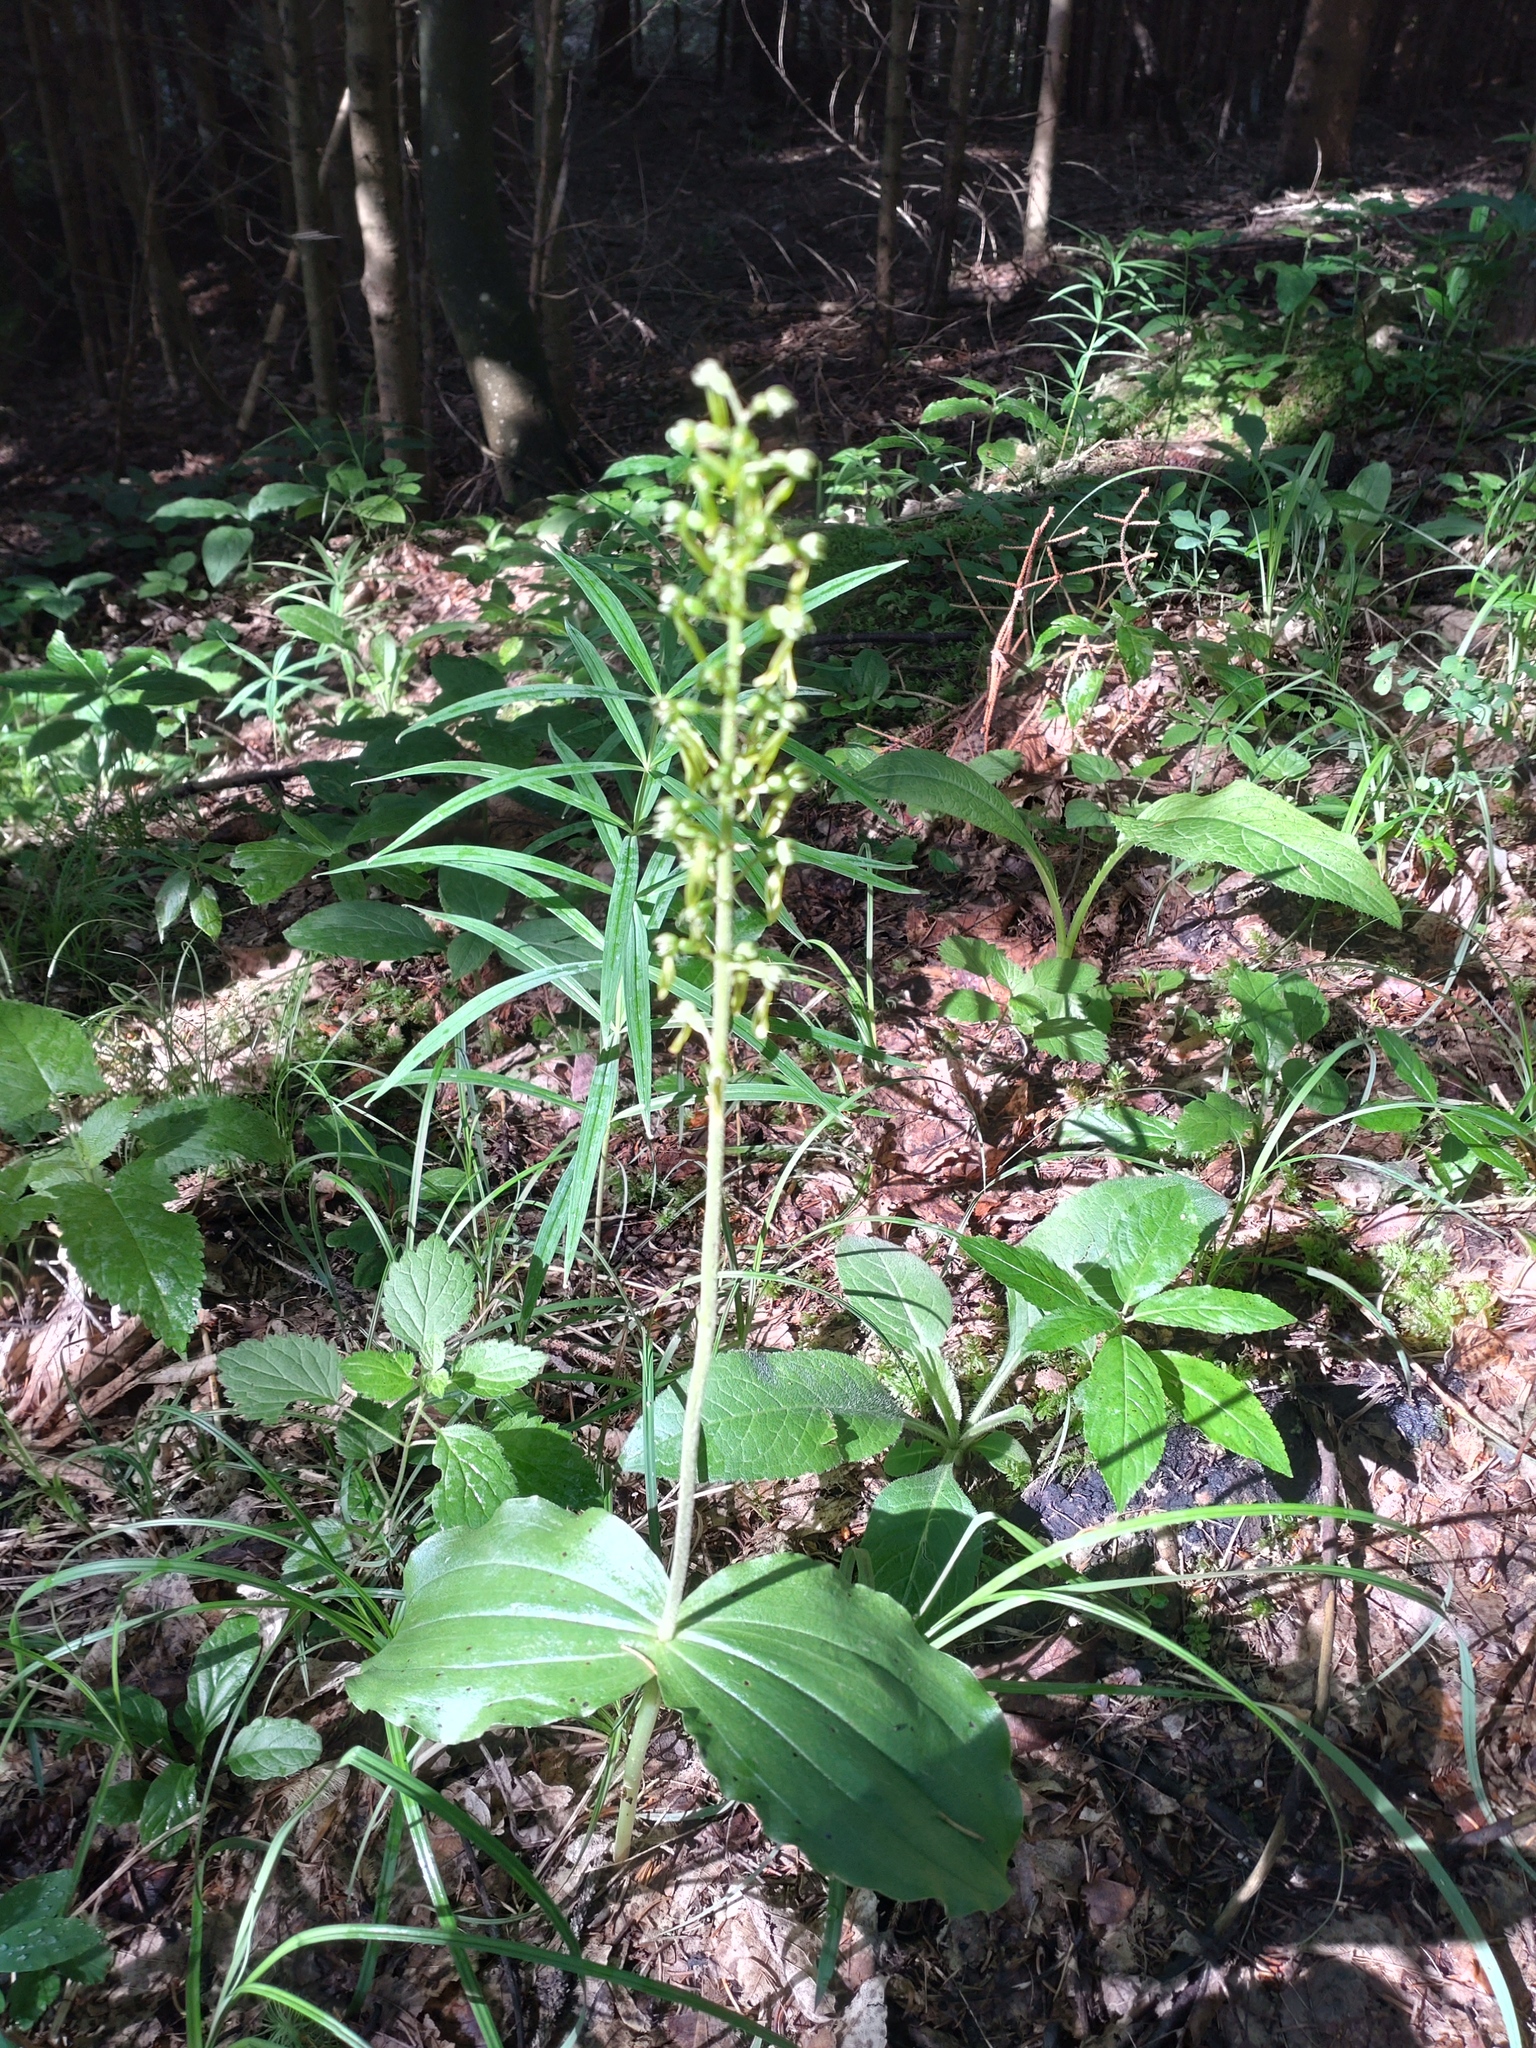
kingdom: Plantae
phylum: Tracheophyta
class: Liliopsida
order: Asparagales
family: Orchidaceae
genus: Neottia
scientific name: Neottia ovata
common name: Common twayblade
